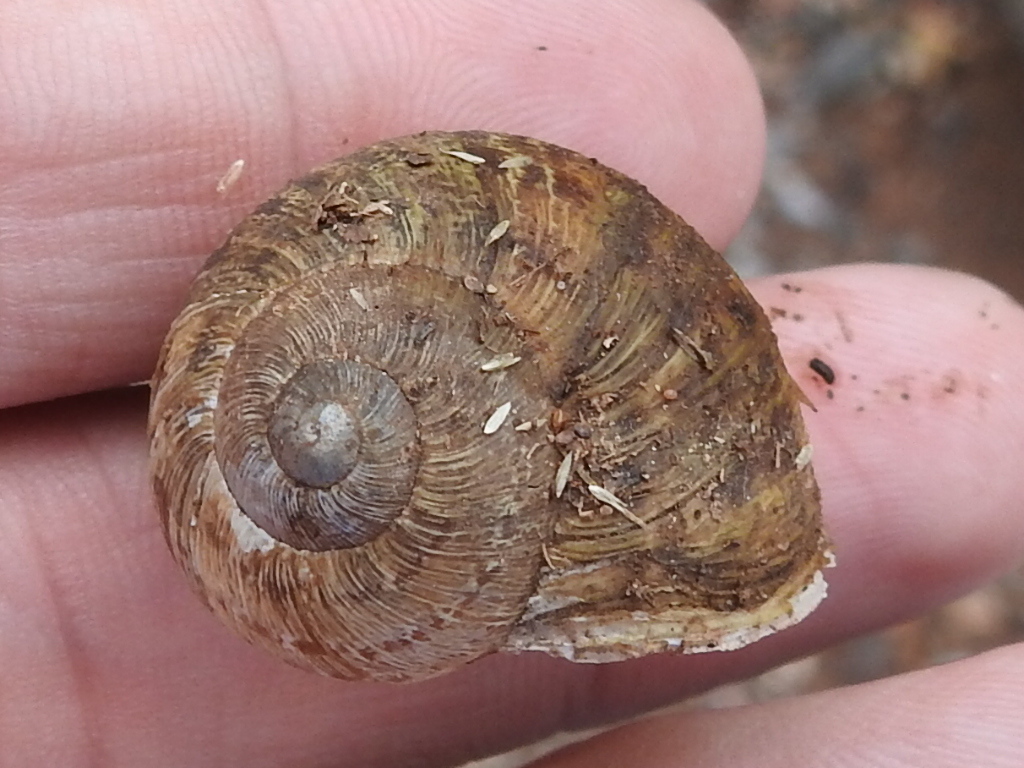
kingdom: Animalia
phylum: Mollusca
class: Gastropoda
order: Stylommatophora
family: Helicidae
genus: Cornu
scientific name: Cornu aspersum
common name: Brown garden snail
